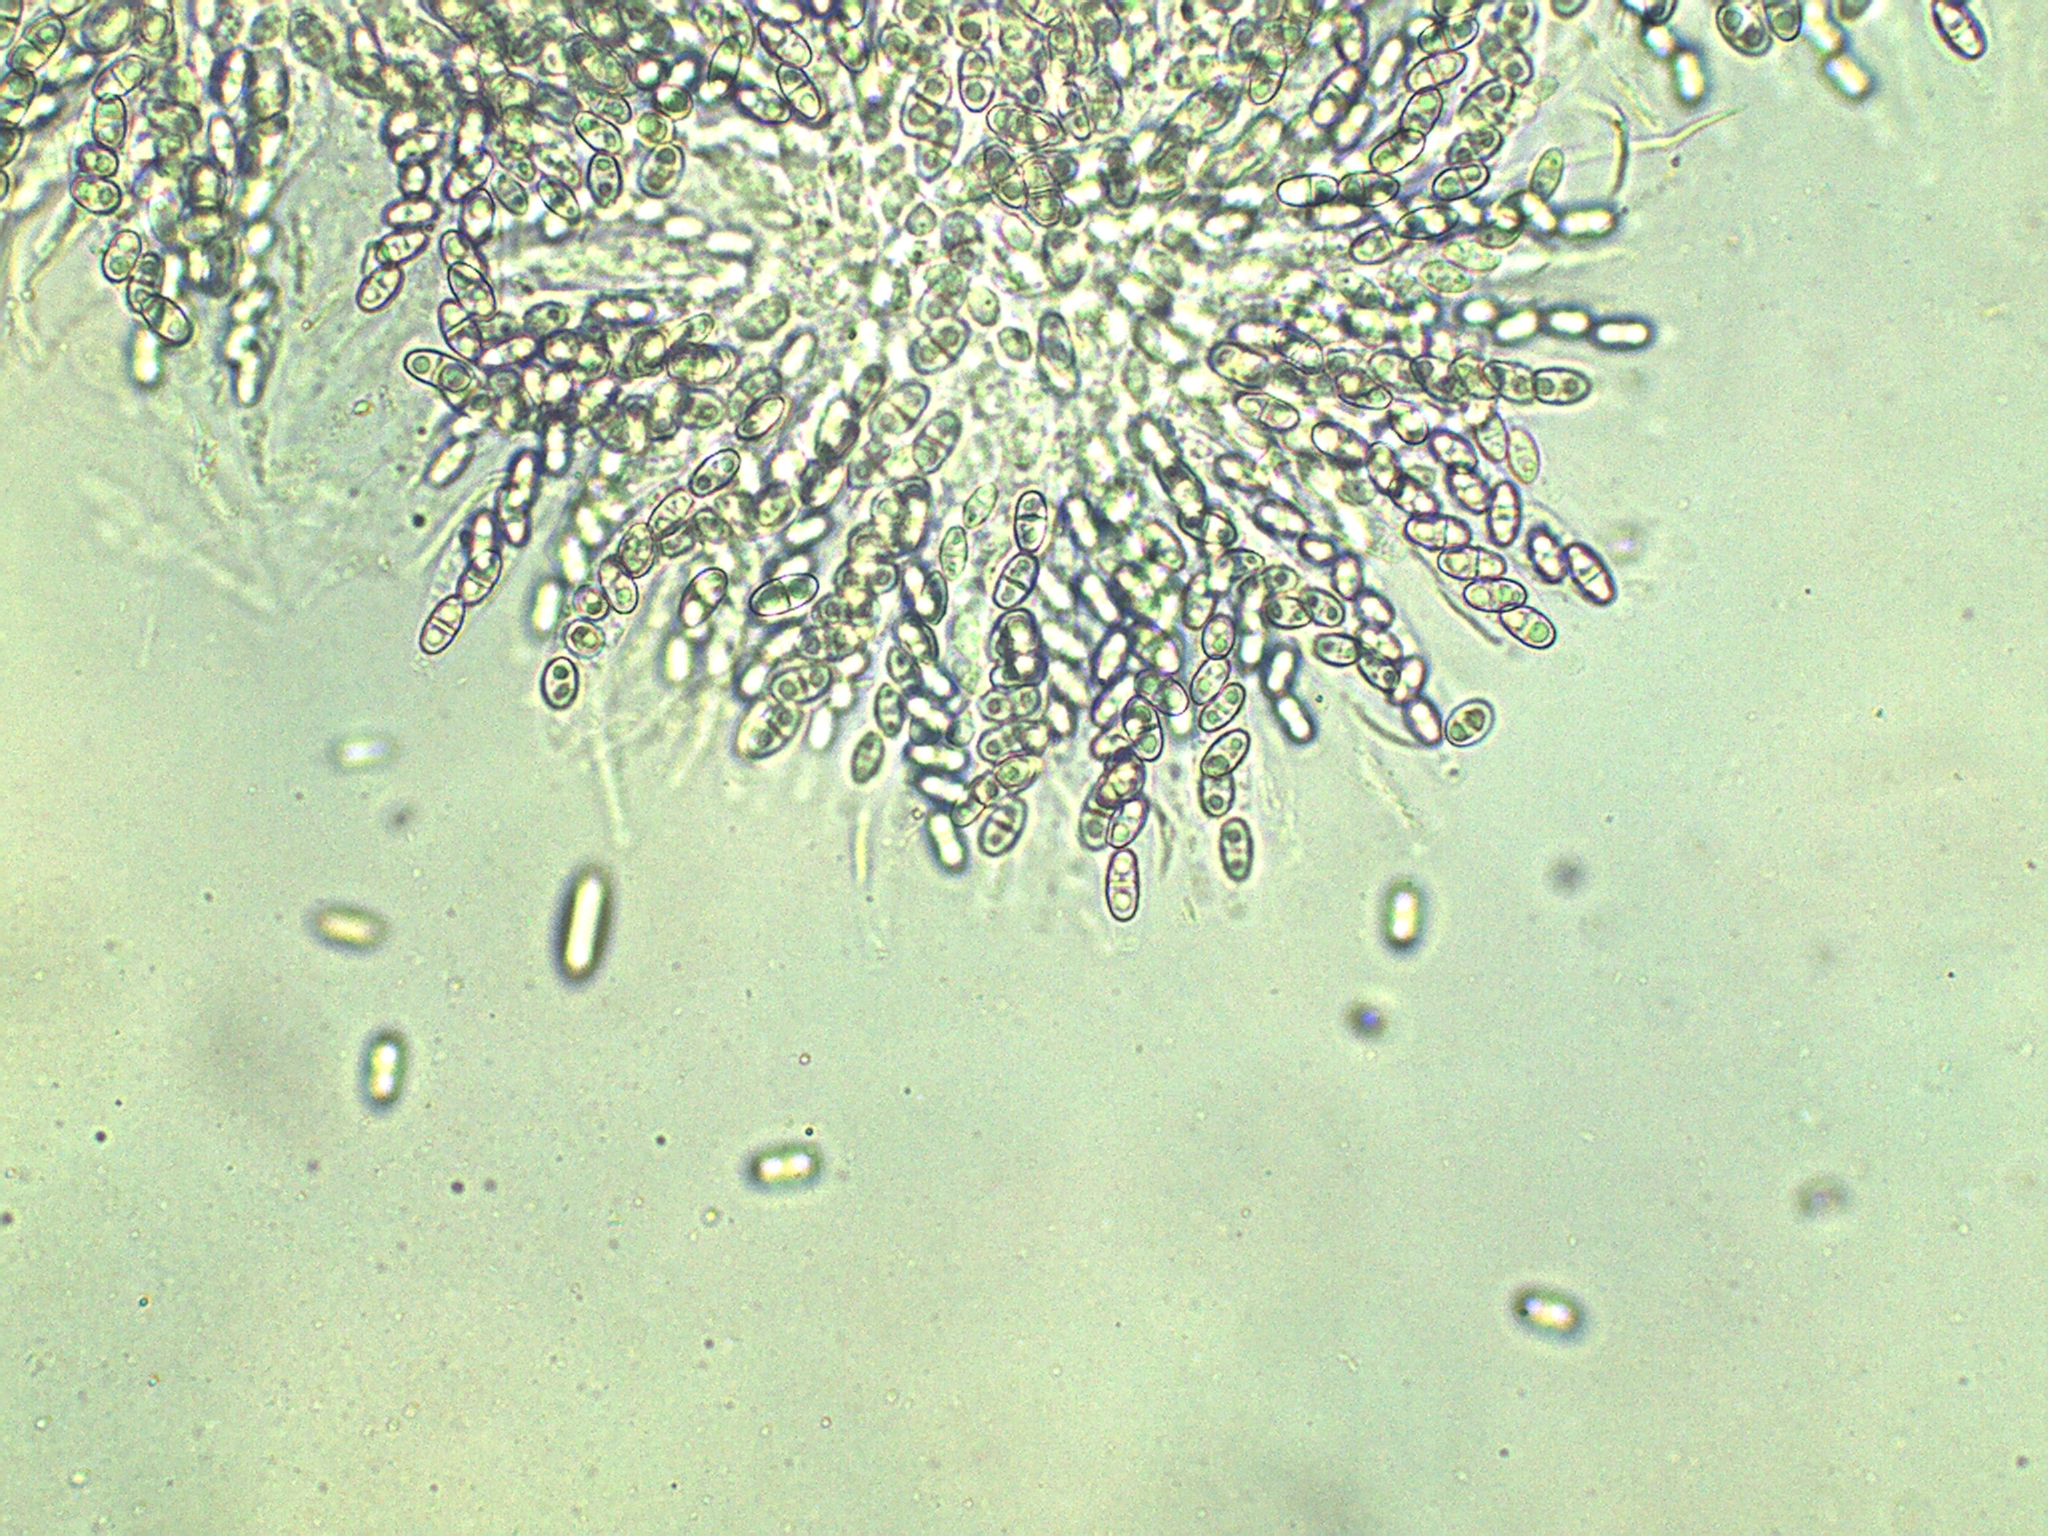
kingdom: Fungi
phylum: Ascomycota
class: Sordariomycetes
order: Hypocreales
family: Nectriaceae
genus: Hydropisphaera
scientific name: Hydropisphaera peziza
